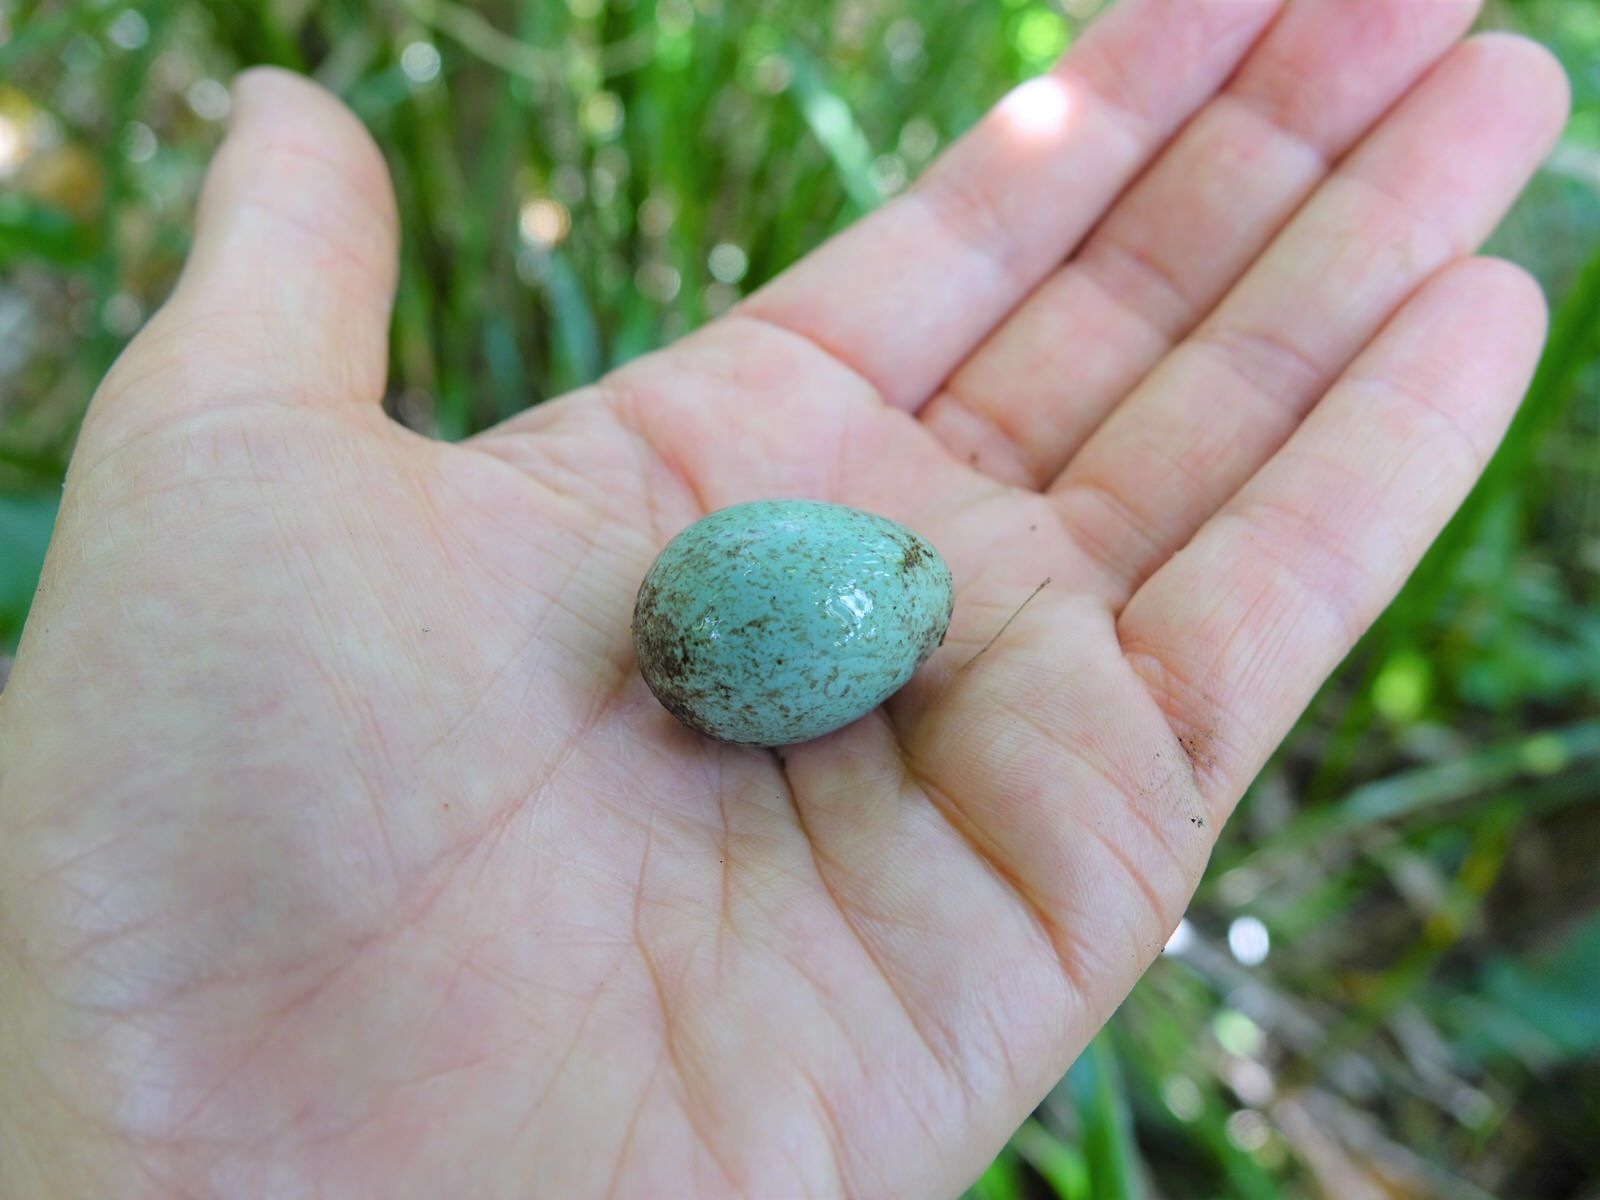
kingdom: Animalia
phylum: Chordata
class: Aves
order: Passeriformes
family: Turdidae
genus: Turdus
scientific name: Turdus merula
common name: Common blackbird
